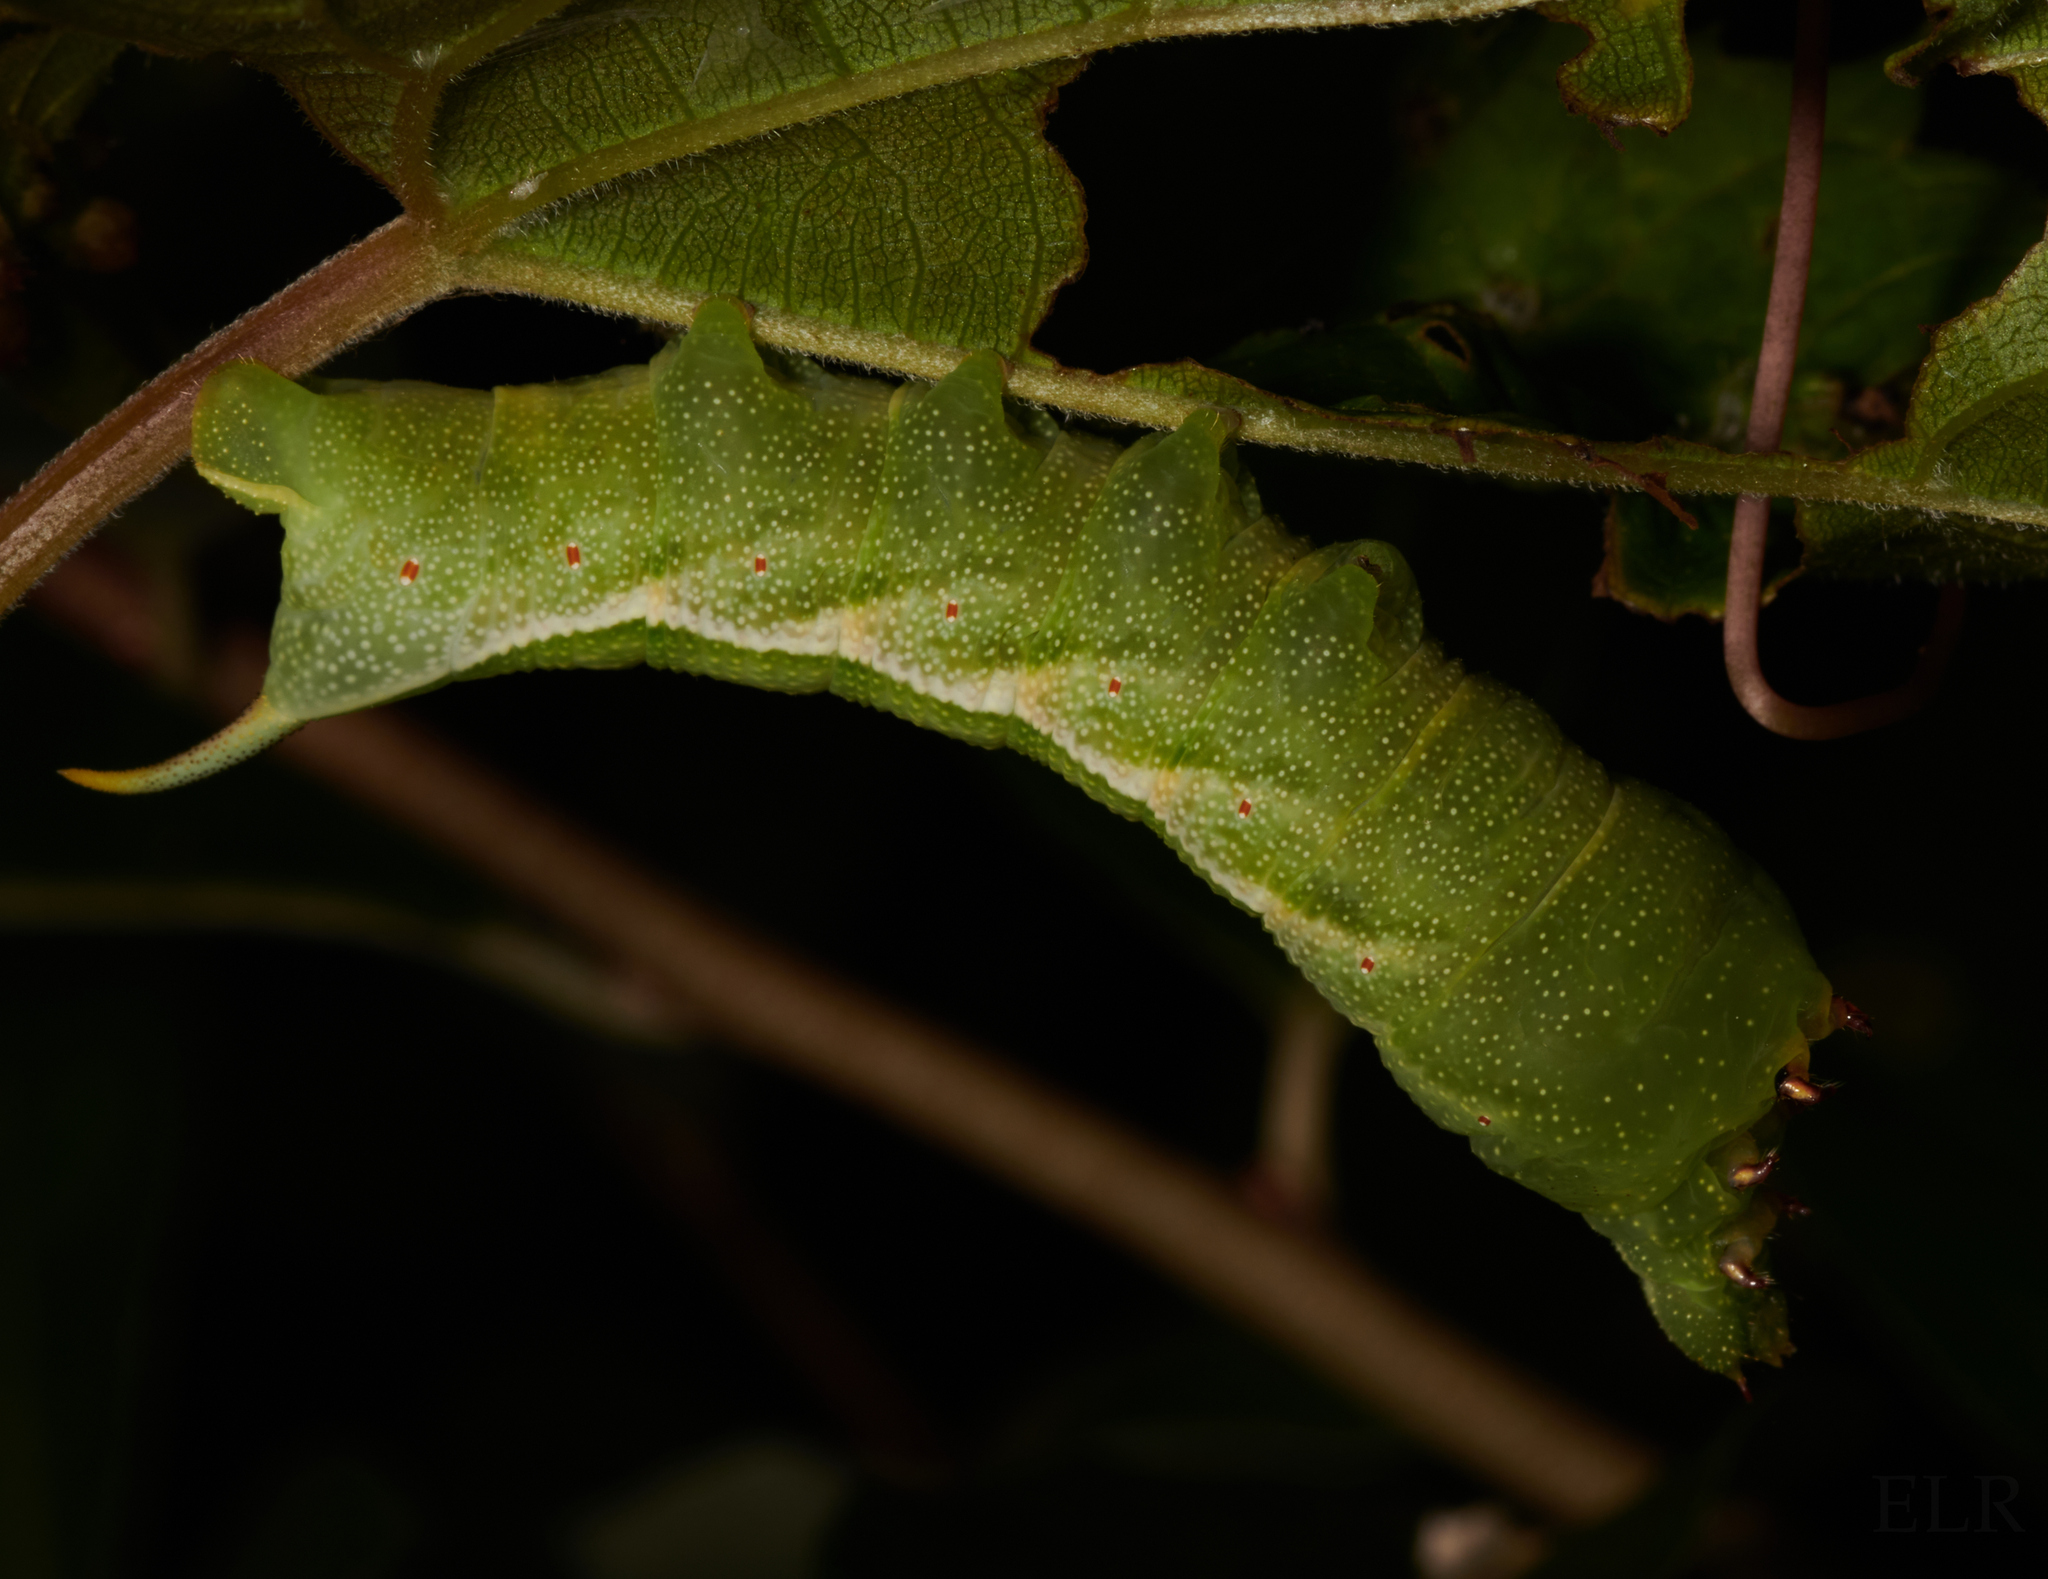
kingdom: Animalia
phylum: Arthropoda
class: Insecta
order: Lepidoptera
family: Sphingidae
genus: Darapsa
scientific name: Darapsa myron
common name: Hog sphinx
